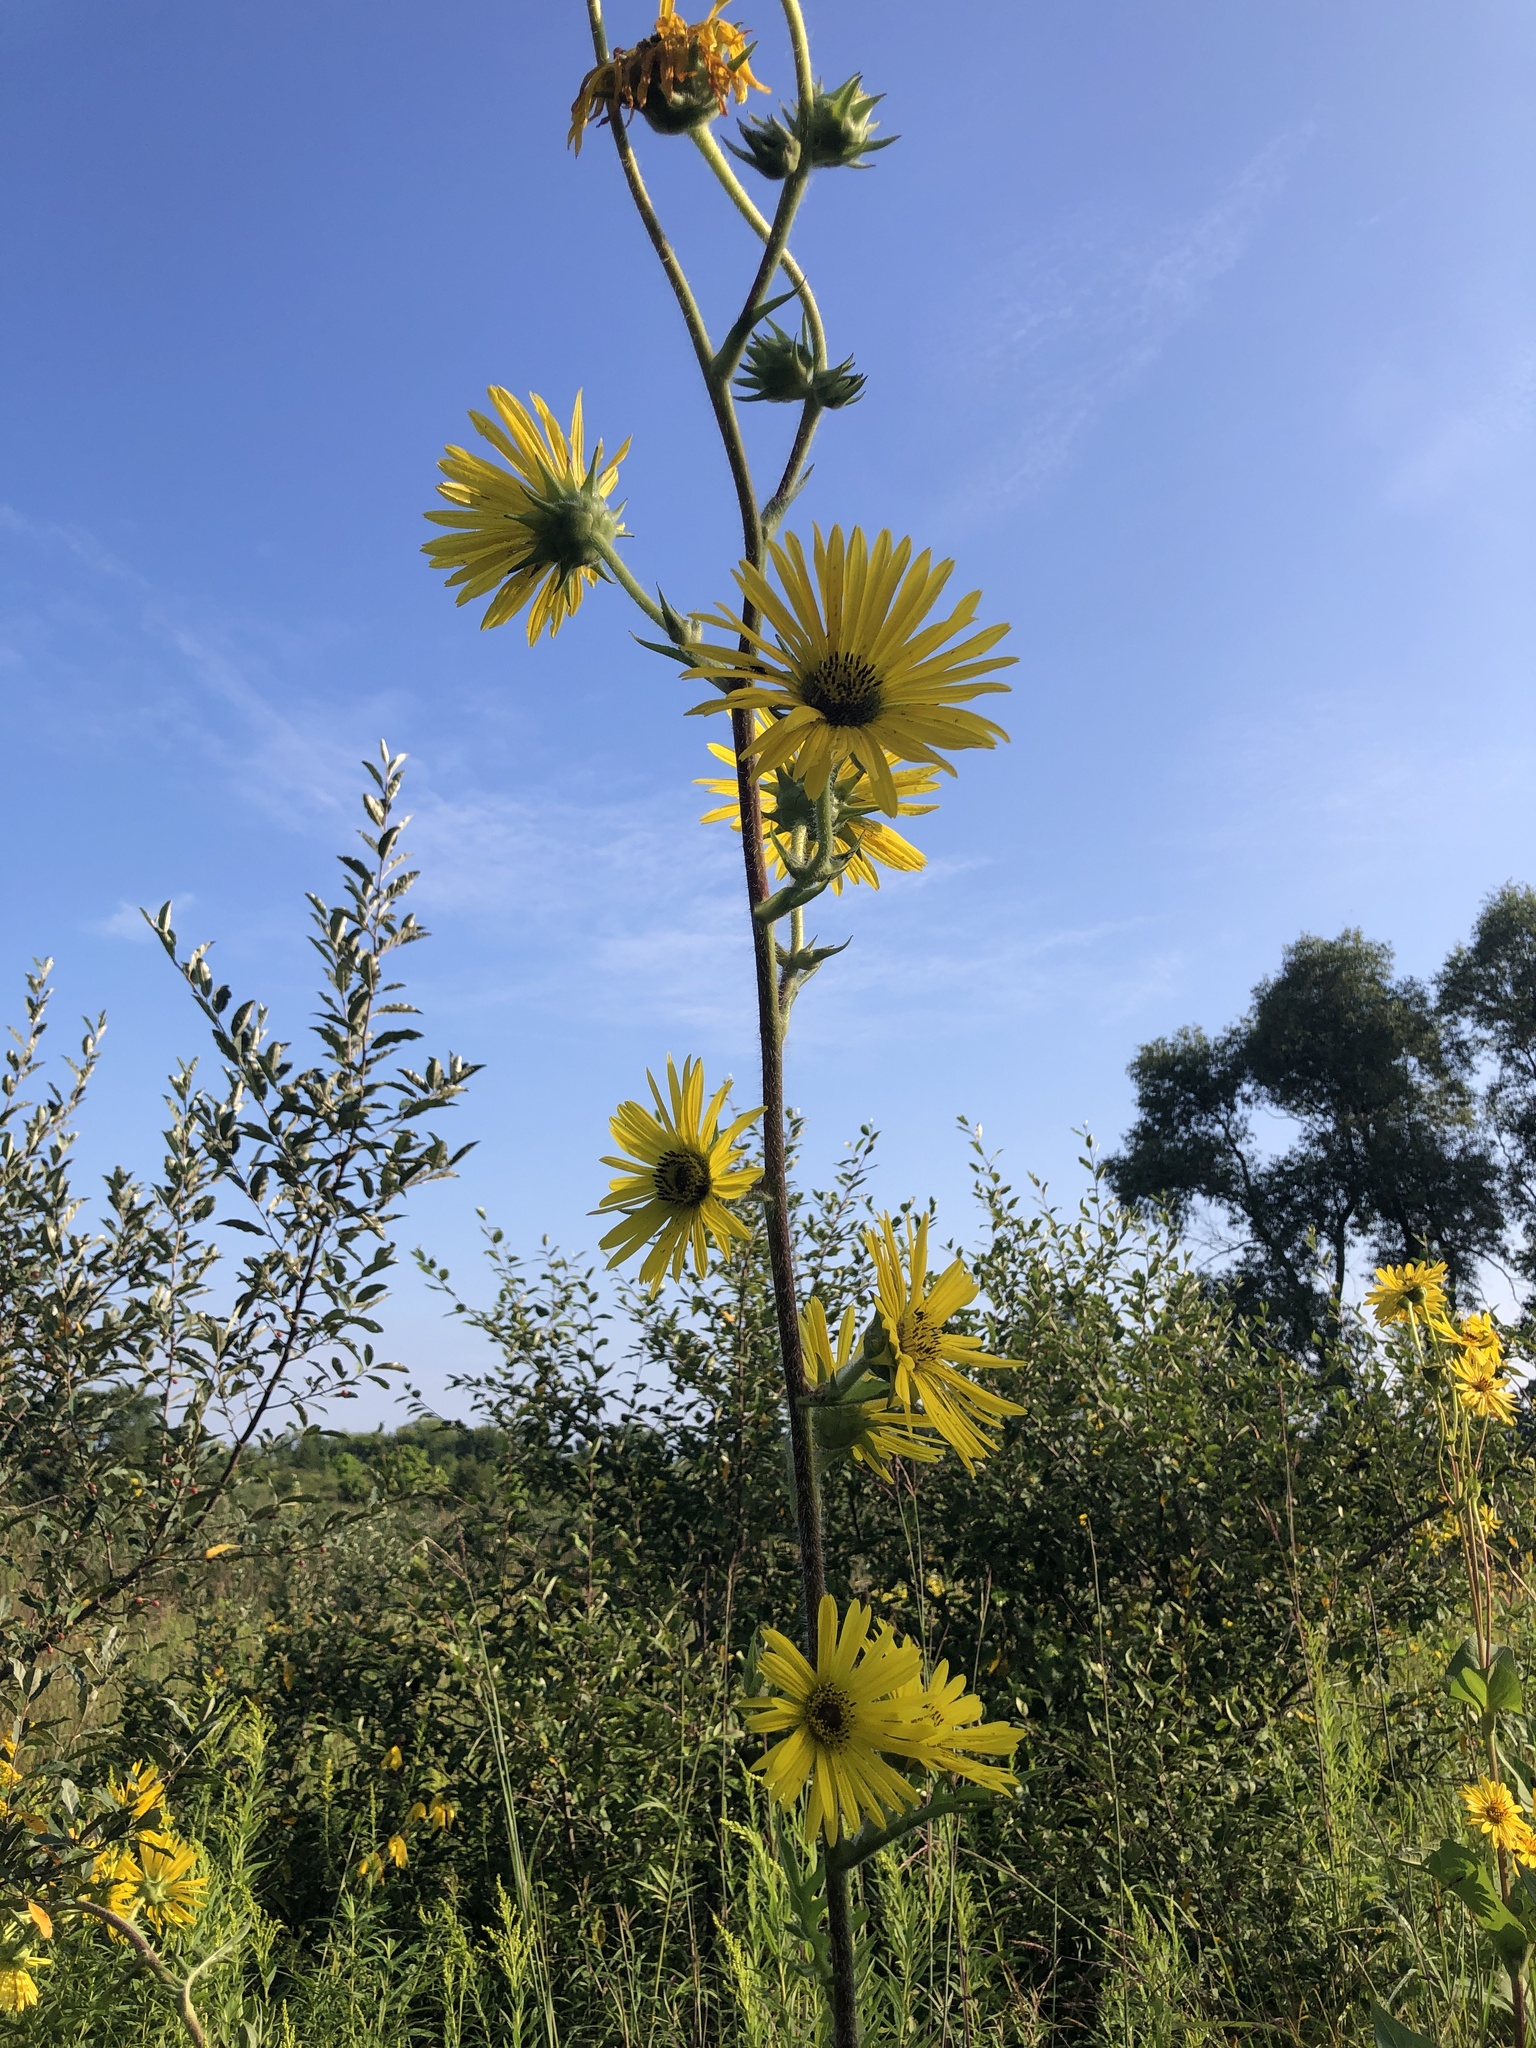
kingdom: Plantae
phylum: Tracheophyta
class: Magnoliopsida
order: Asterales
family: Asteraceae
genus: Silphium
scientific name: Silphium laciniatum
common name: Polarplant
